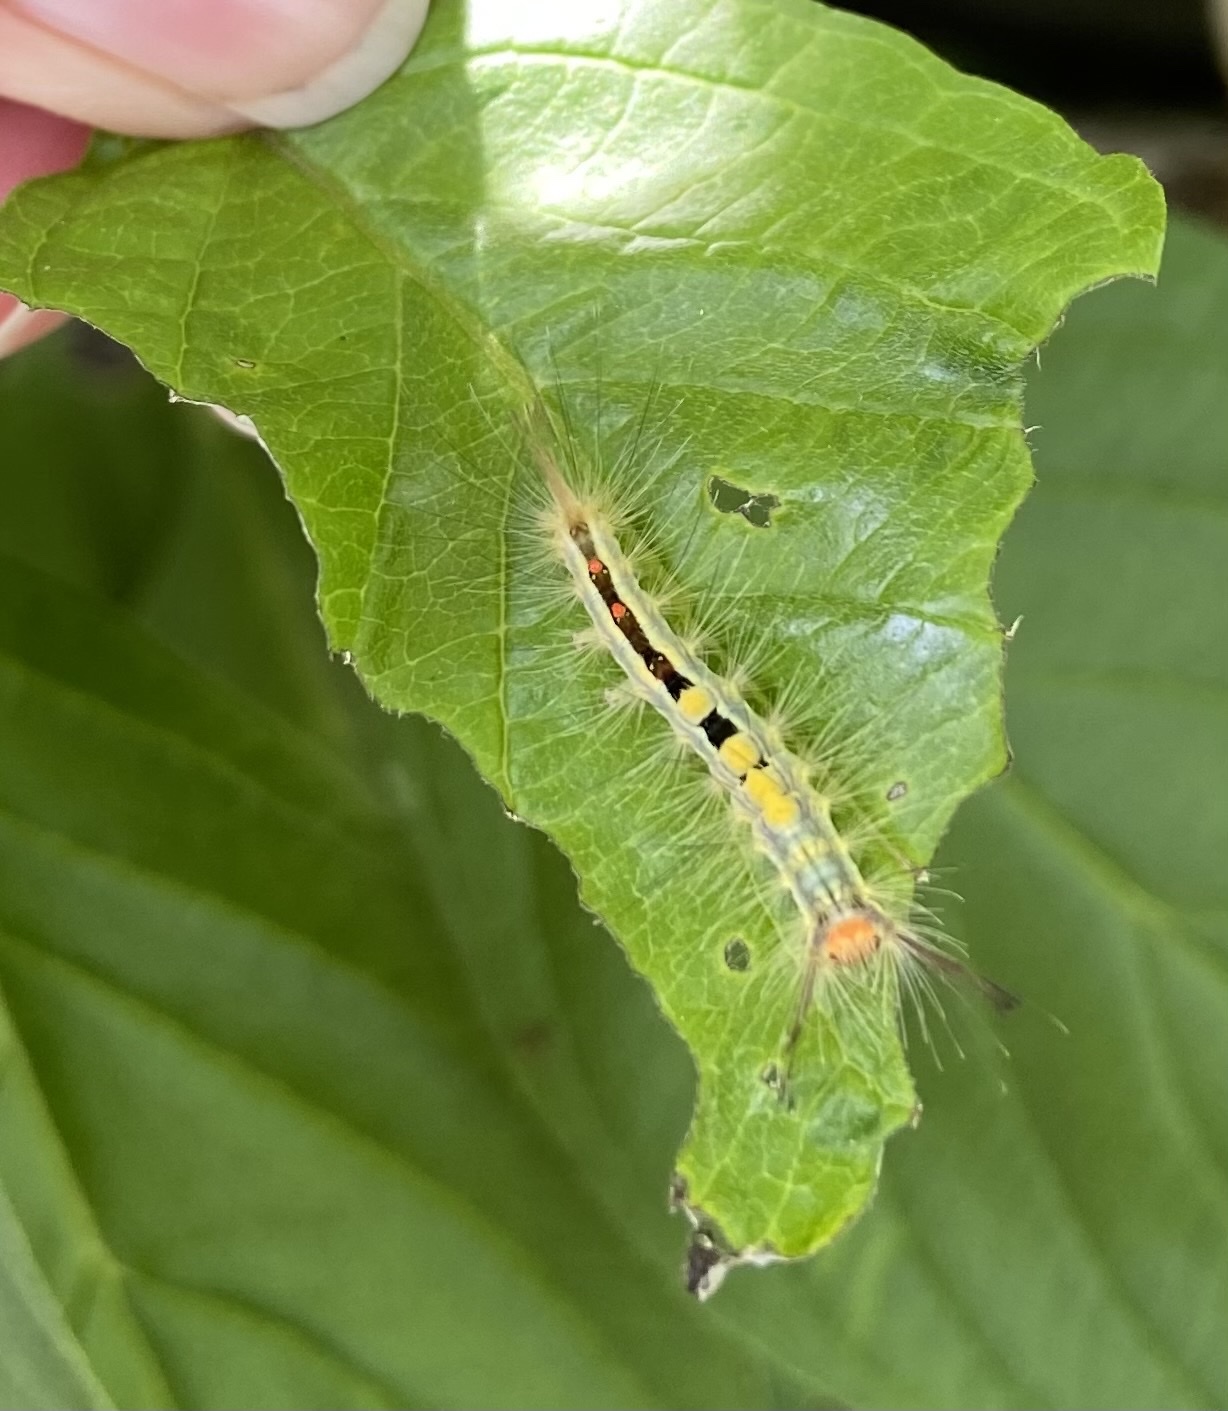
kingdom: Animalia
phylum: Arthropoda
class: Insecta
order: Lepidoptera
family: Erebidae
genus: Orgyia
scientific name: Orgyia leucostigma
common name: White-marked tussock moth
